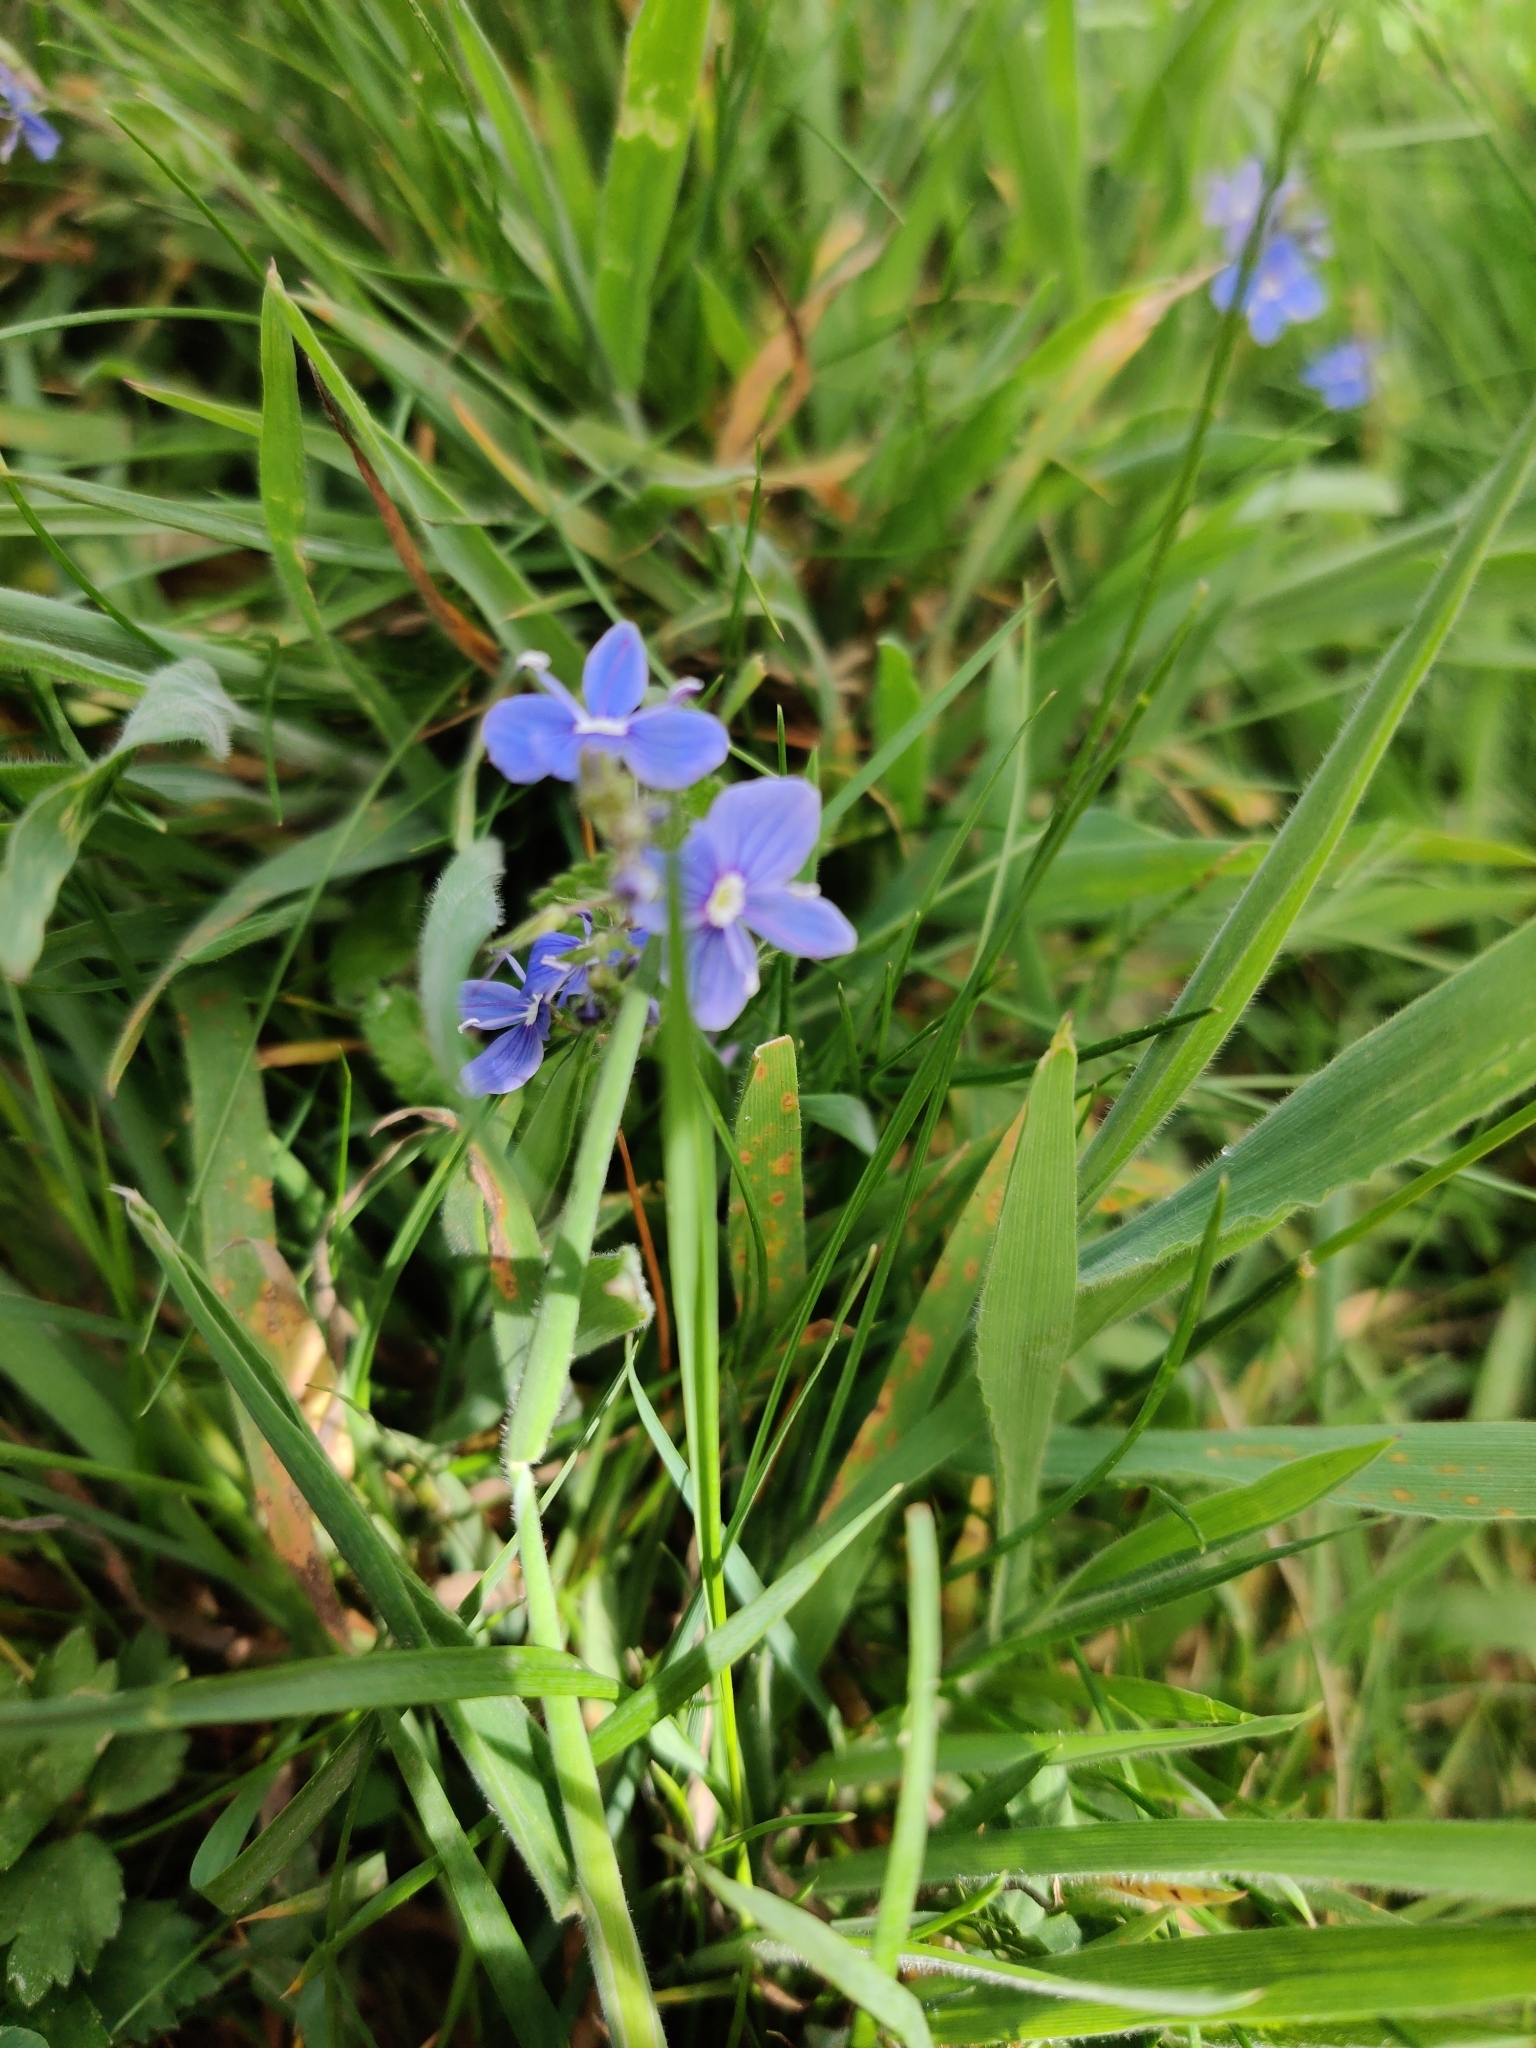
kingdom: Plantae
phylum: Tracheophyta
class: Magnoliopsida
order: Lamiales
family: Plantaginaceae
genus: Veronica
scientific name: Veronica chamaedrys
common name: Germander speedwell
